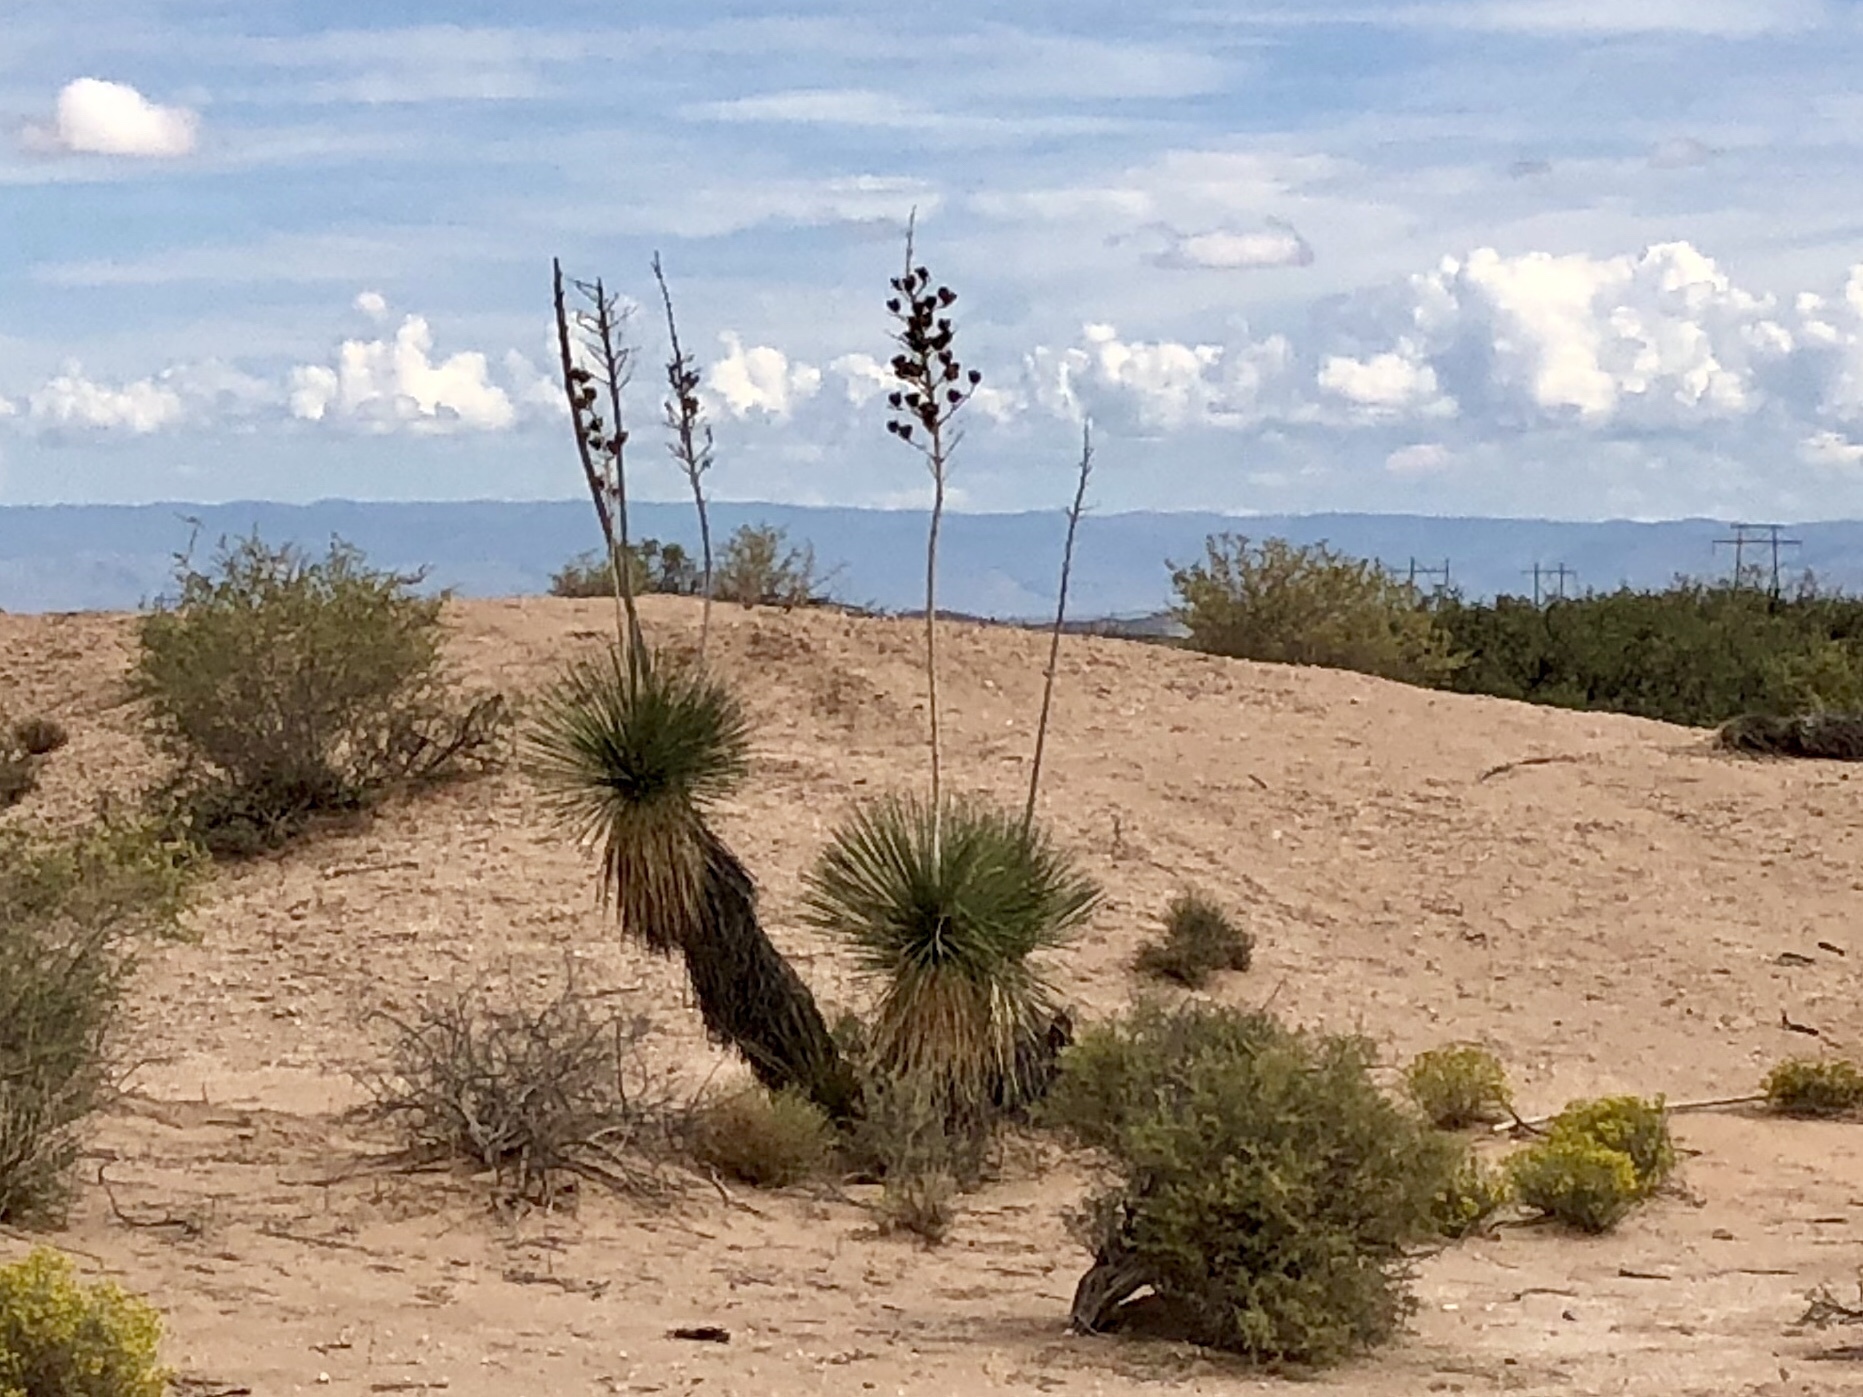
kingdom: Plantae
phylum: Tracheophyta
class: Liliopsida
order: Asparagales
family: Asparagaceae
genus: Yucca
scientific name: Yucca elata
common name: Palmella
